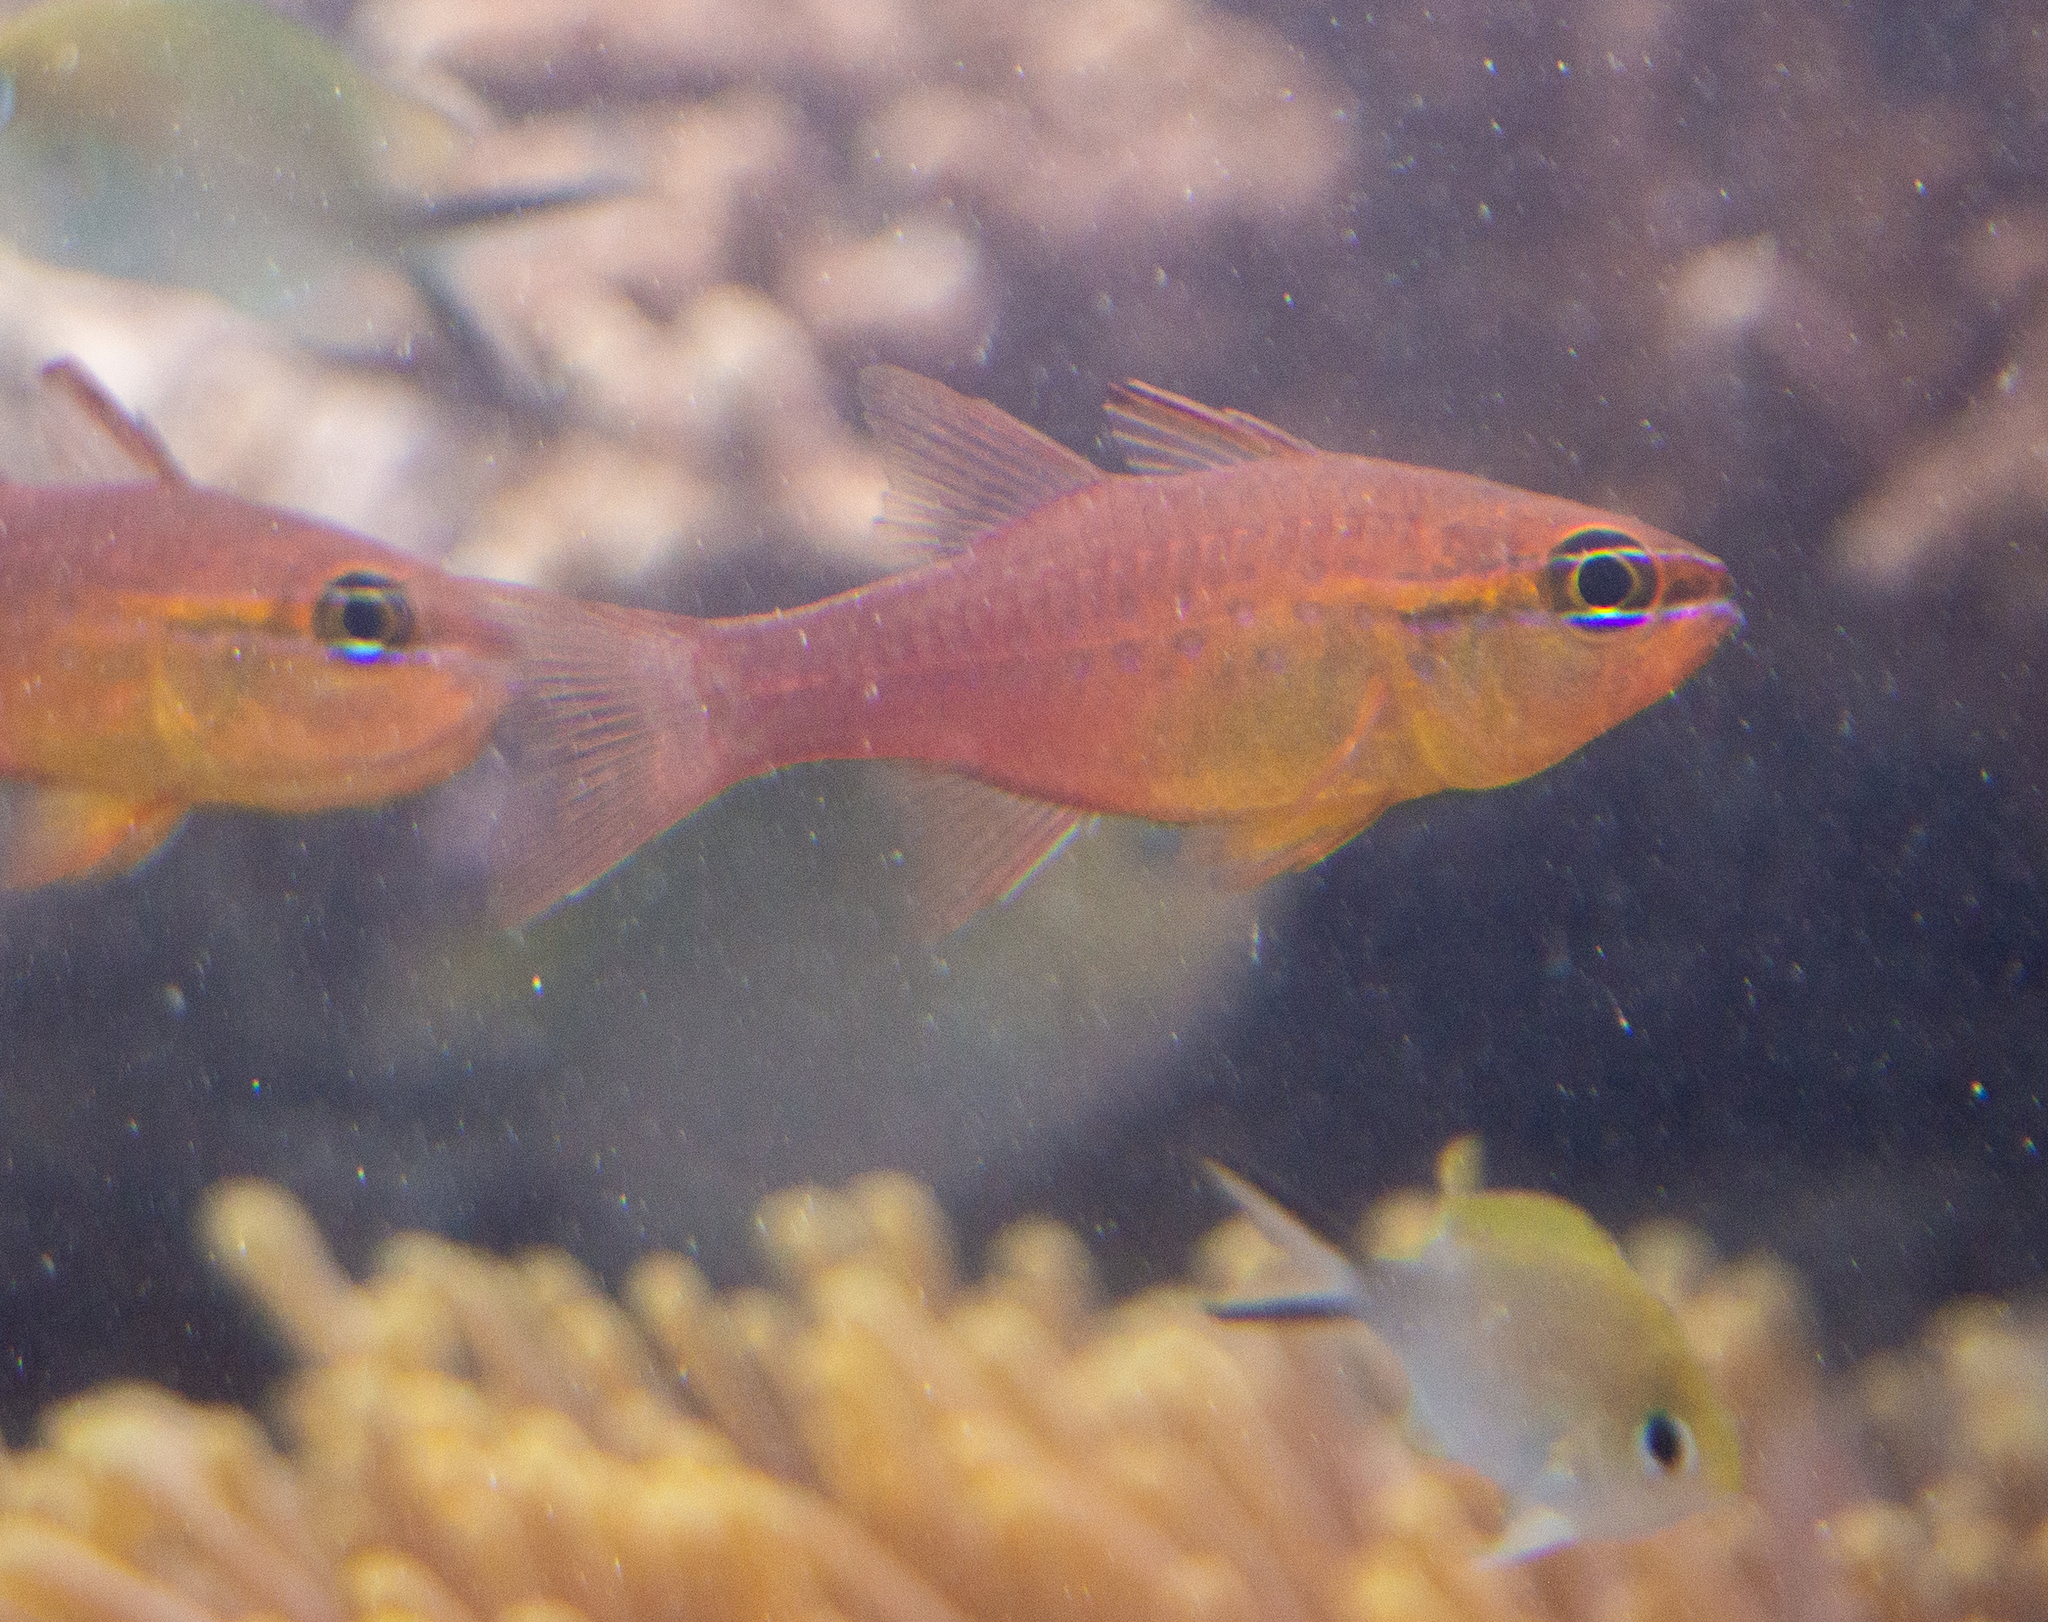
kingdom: Animalia
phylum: Chordata
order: Perciformes
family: Apogonidae
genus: Ostorhinchus
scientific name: Ostorhinchus apogonoides
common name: Goldbelly cardinalfish
